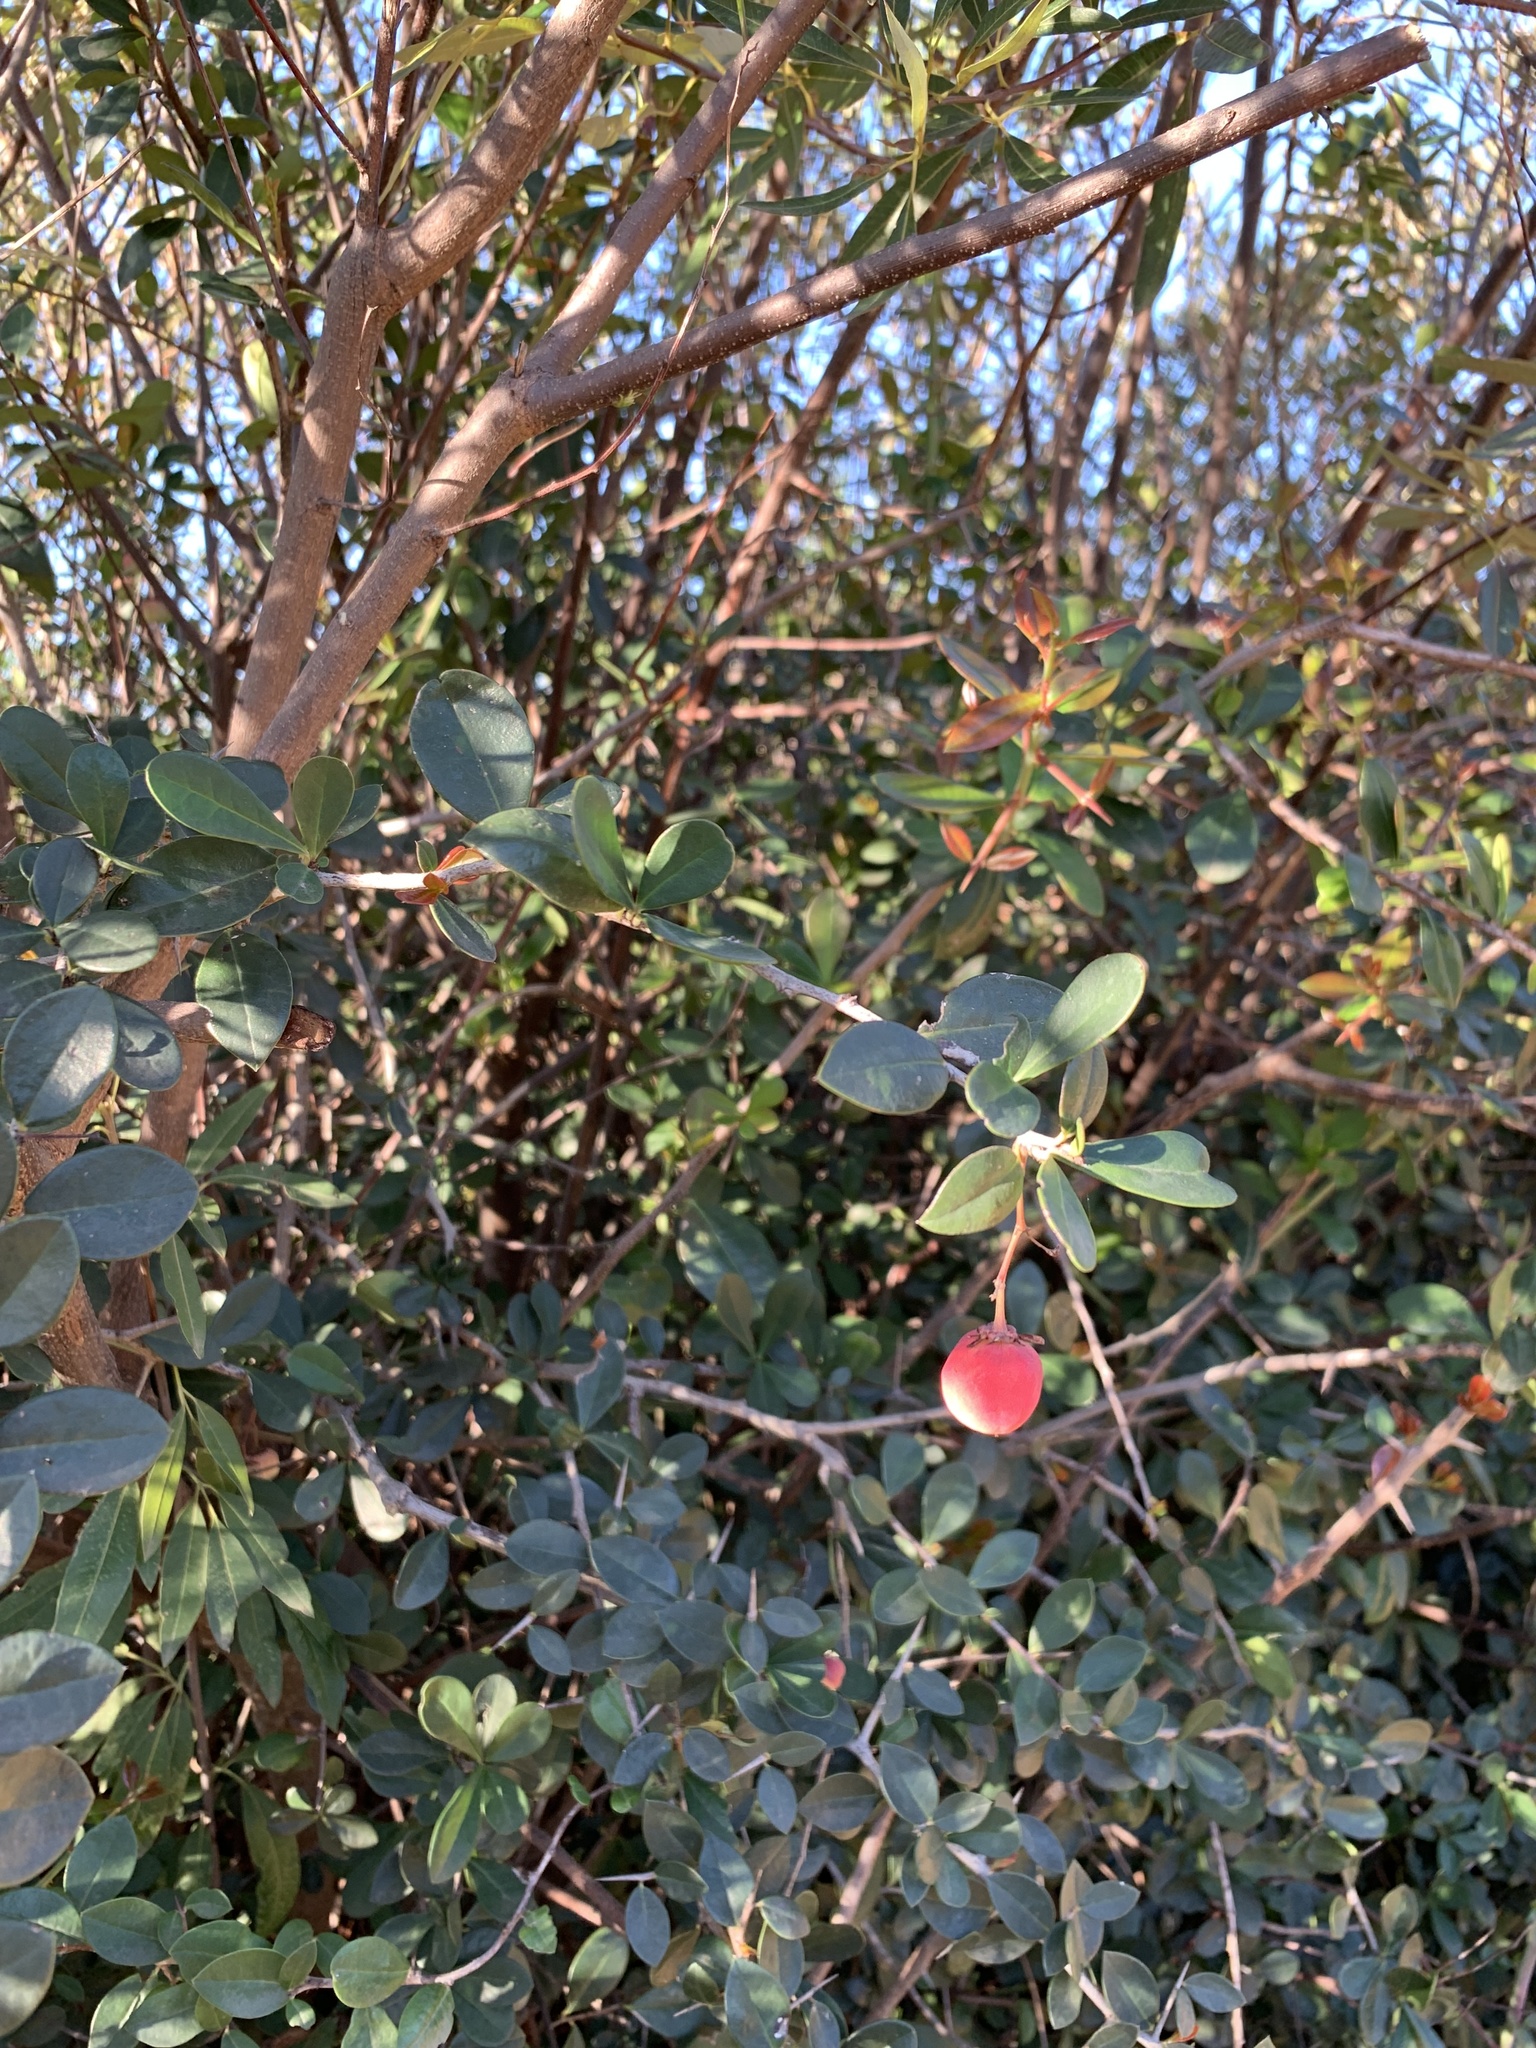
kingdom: Plantae
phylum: Tracheophyta
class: Magnoliopsida
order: Celastrales
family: Celastraceae
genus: Putterlickia
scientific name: Putterlickia pyracantha
